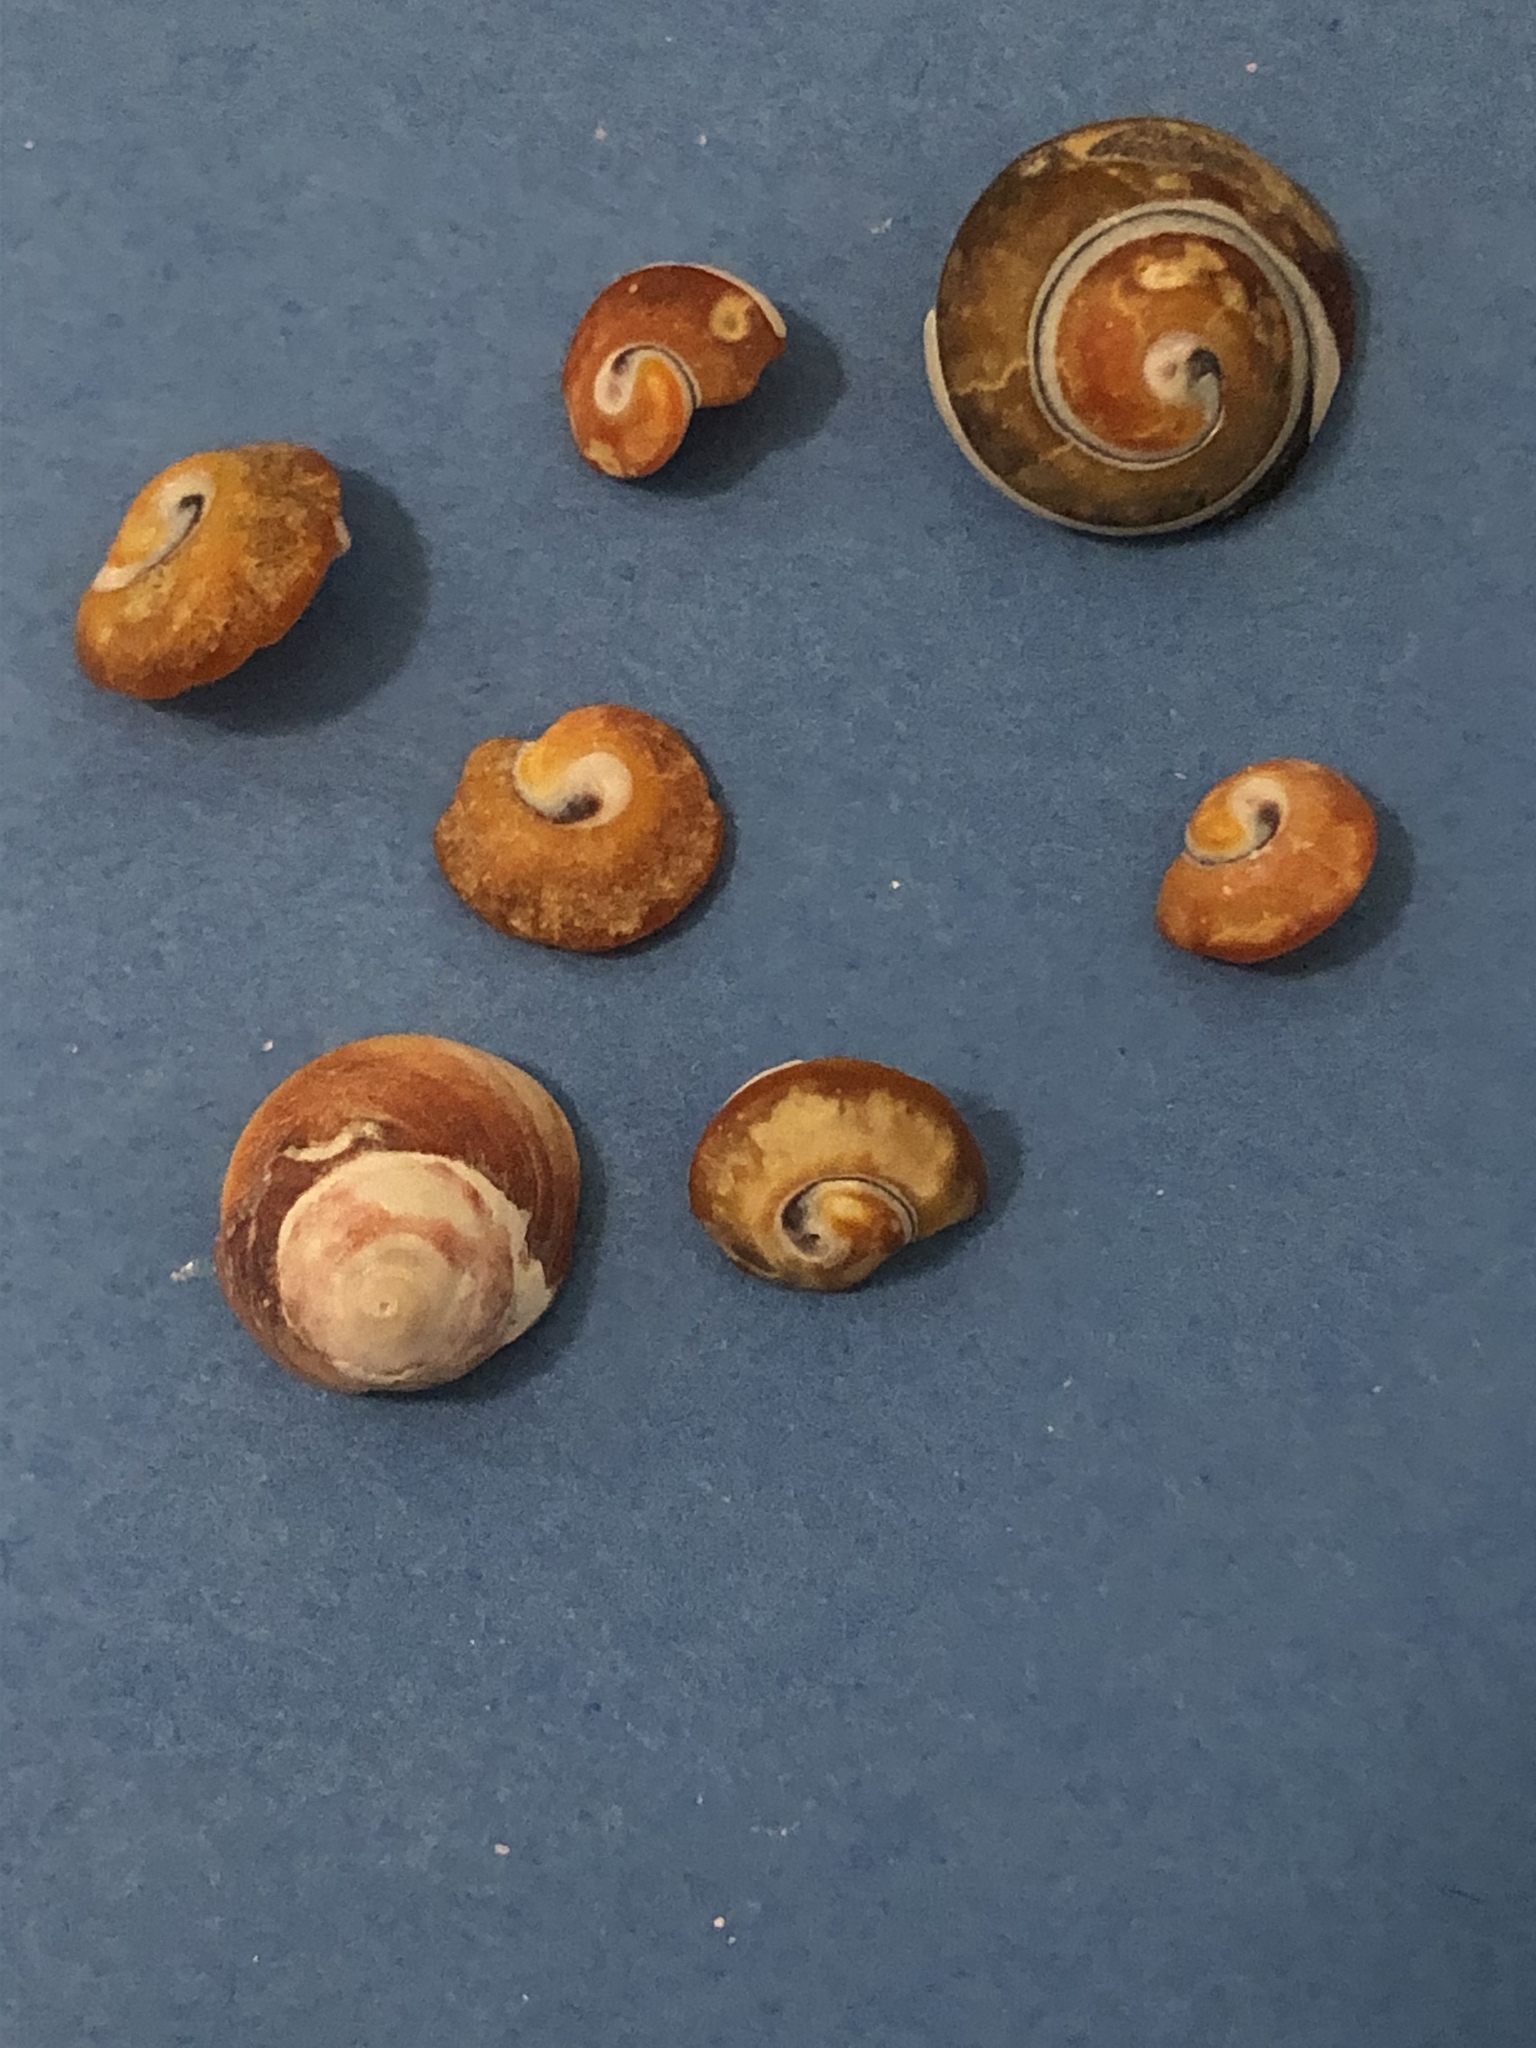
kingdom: Animalia
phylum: Mollusca
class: Gastropoda
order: Trochida
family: Tegulidae
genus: Tegula
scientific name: Tegula brunnea
